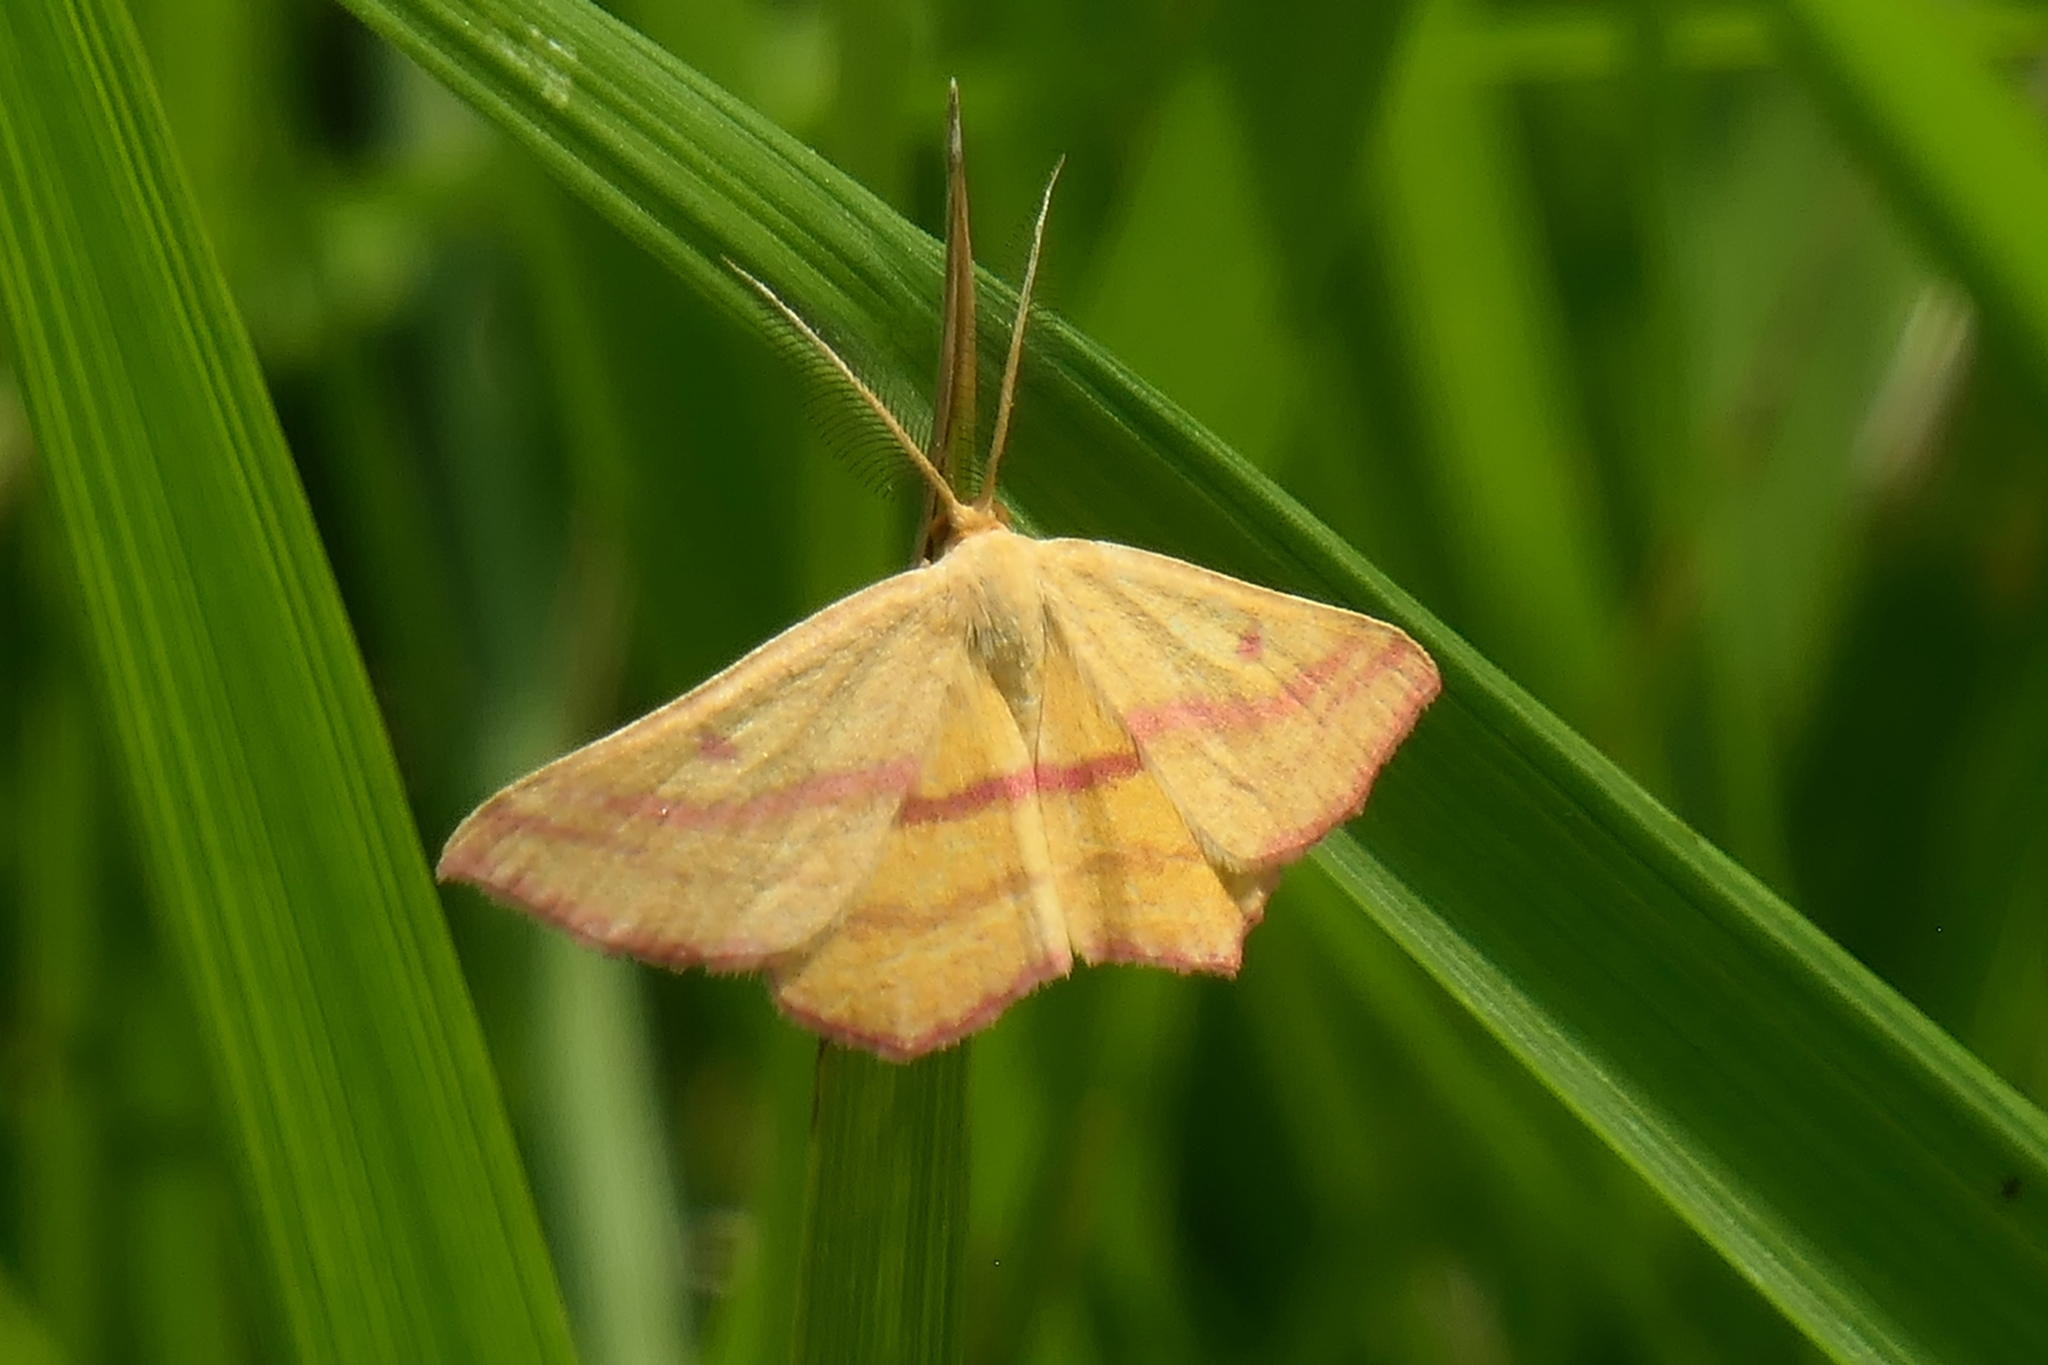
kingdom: Animalia
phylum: Arthropoda
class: Insecta
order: Lepidoptera
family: Geometridae
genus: Haematopis
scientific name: Haematopis grataria
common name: Chickweed geometer
